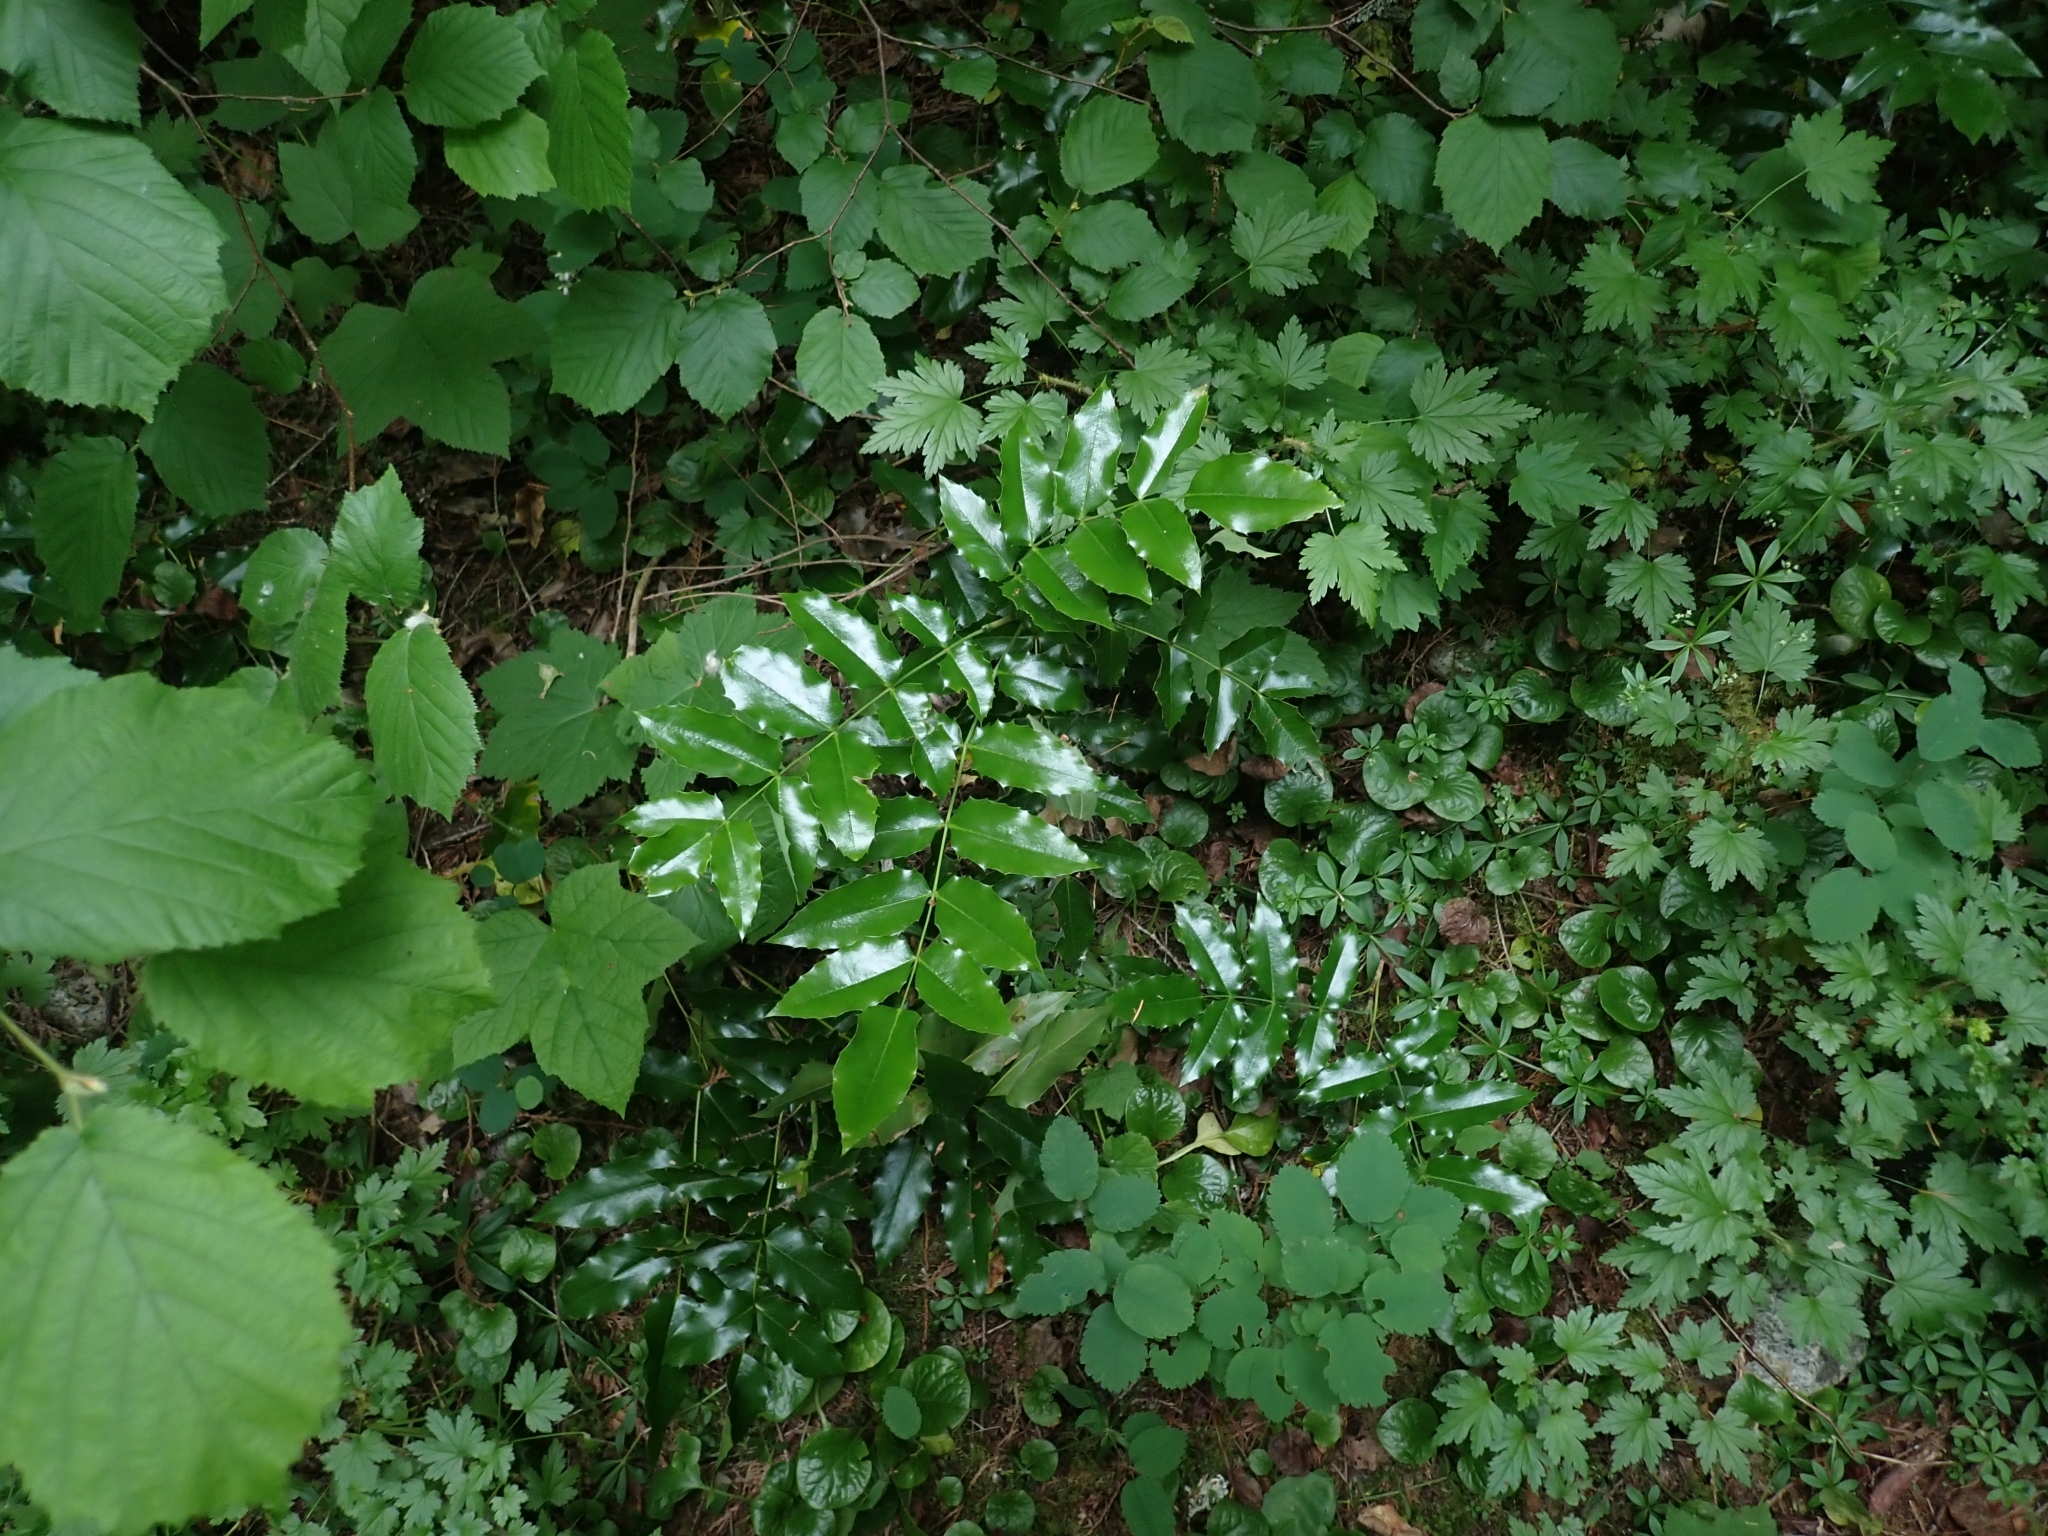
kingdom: Plantae
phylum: Tracheophyta
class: Magnoliopsida
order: Ranunculales
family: Berberidaceae
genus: Mahonia
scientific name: Mahonia aquifolium
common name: Oregon-grape
